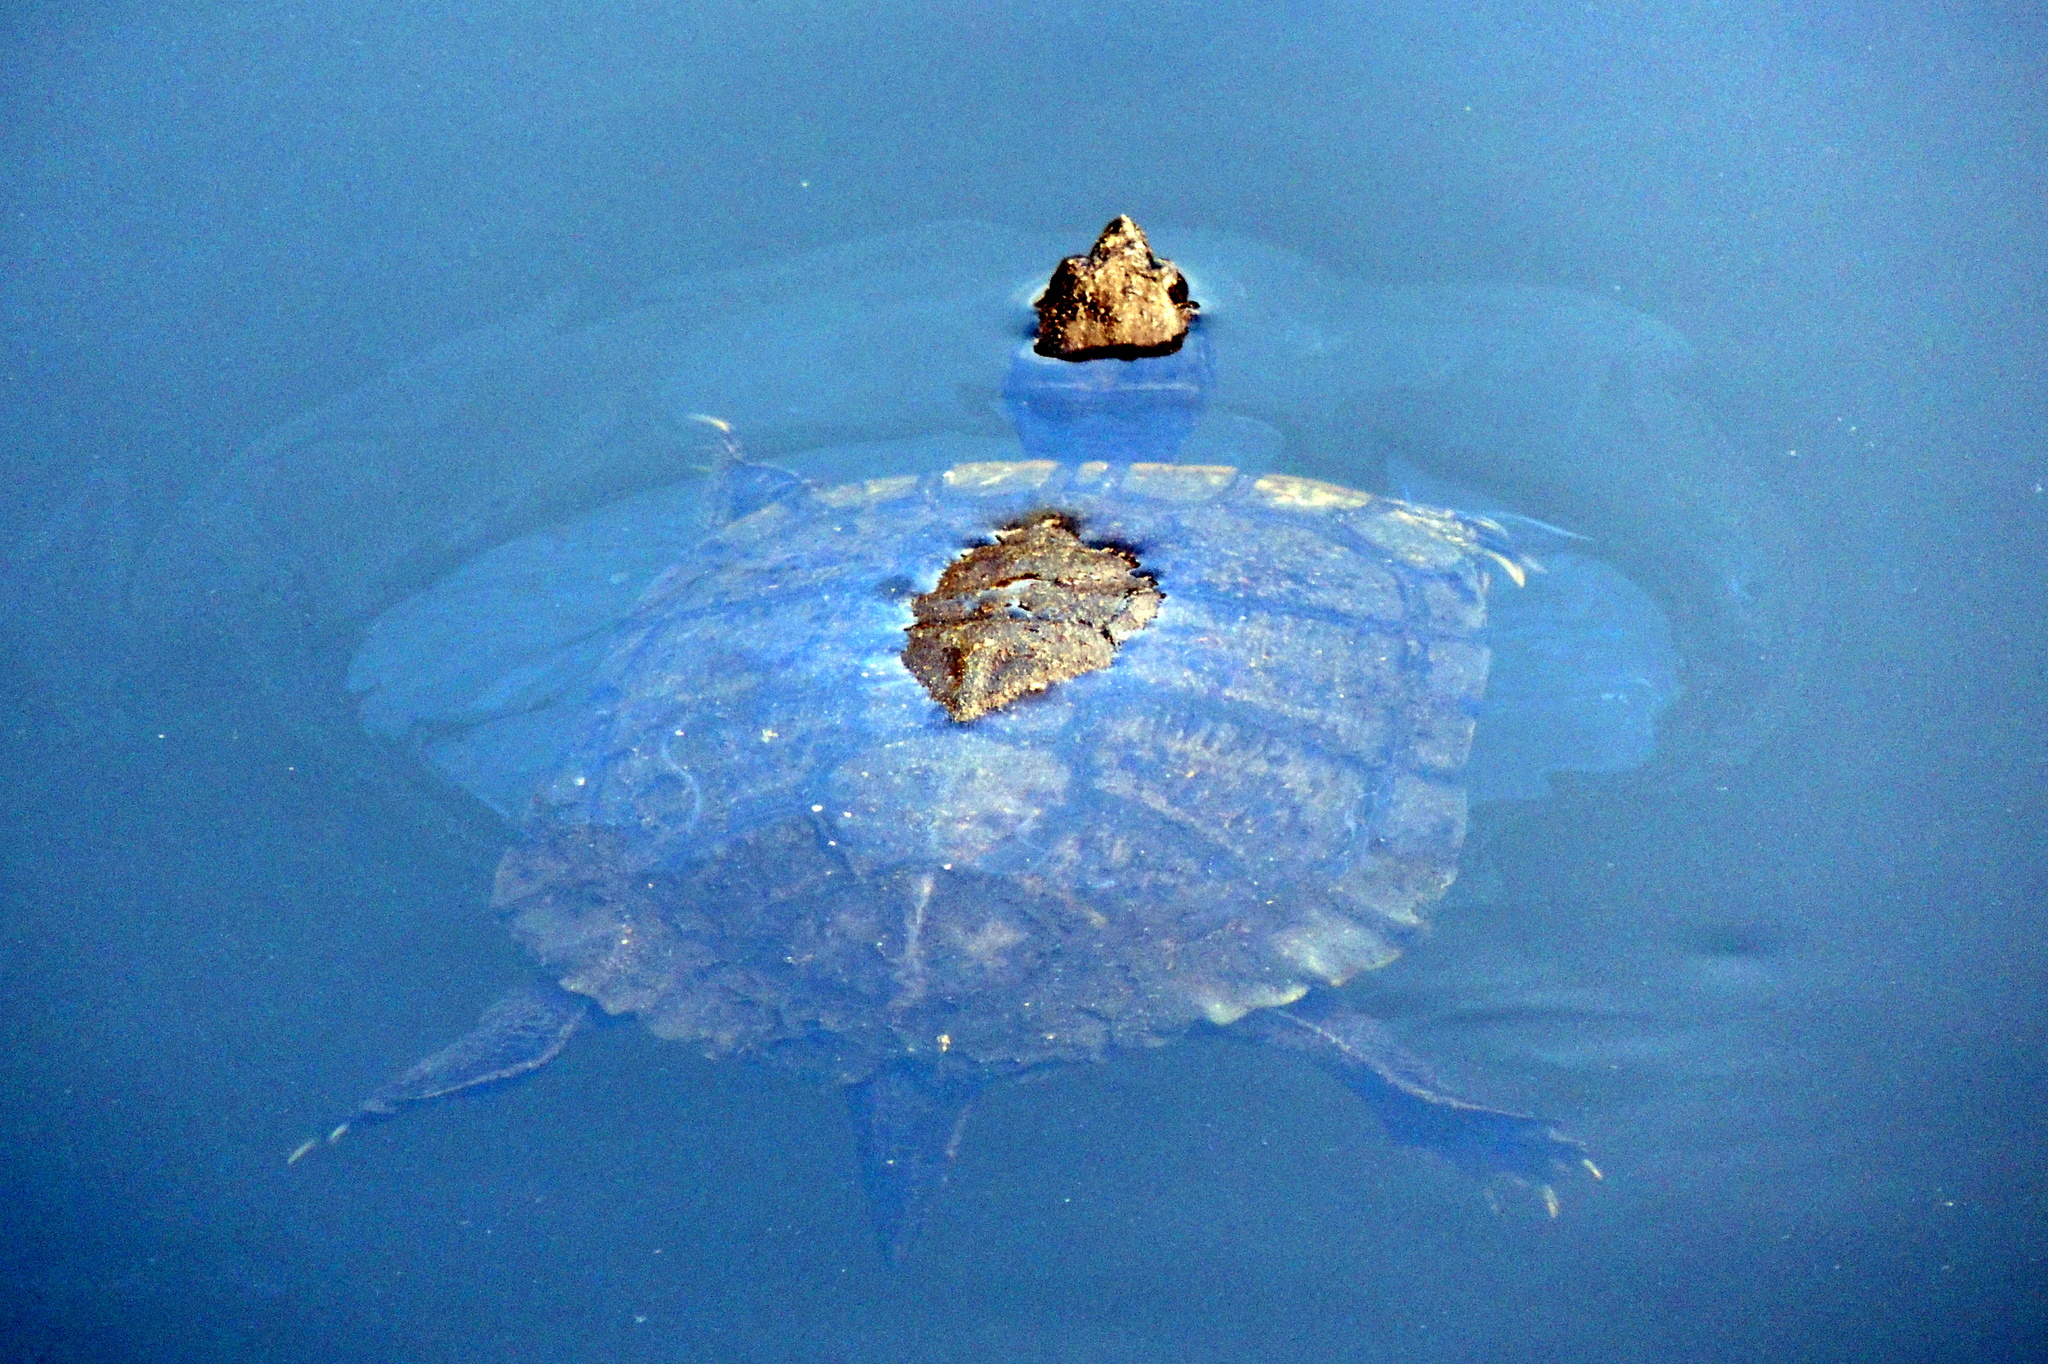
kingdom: Animalia
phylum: Chordata
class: Testudines
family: Emydidae
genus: Trachemys
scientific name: Trachemys scripta
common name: Slider
